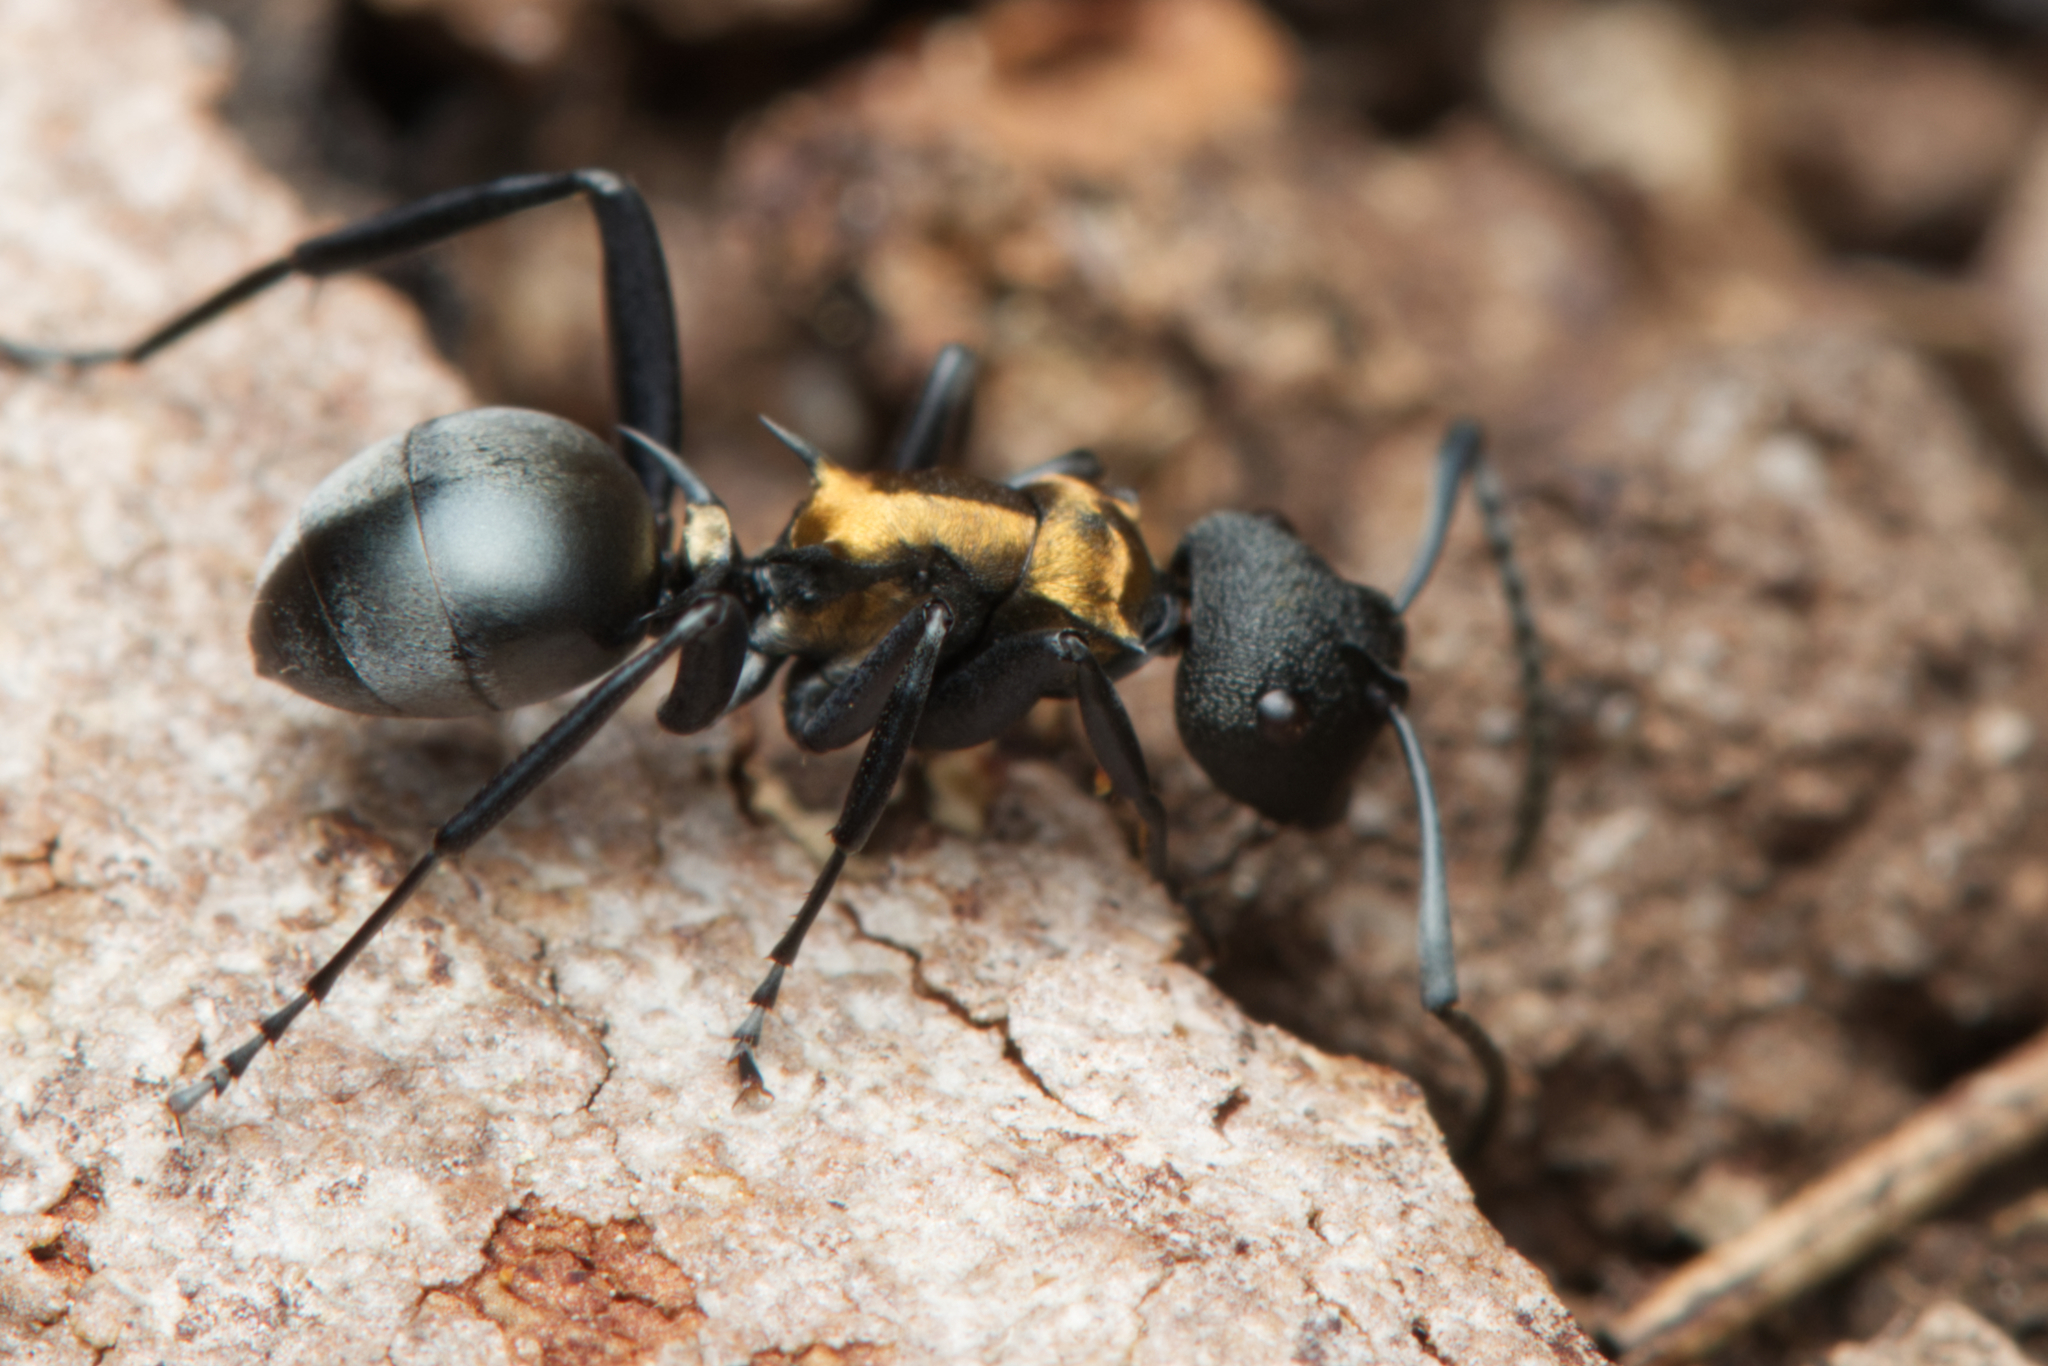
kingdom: Animalia
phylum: Arthropoda
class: Insecta
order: Hymenoptera
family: Formicidae
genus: Polyrhachis
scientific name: Polyrhachis ornata
